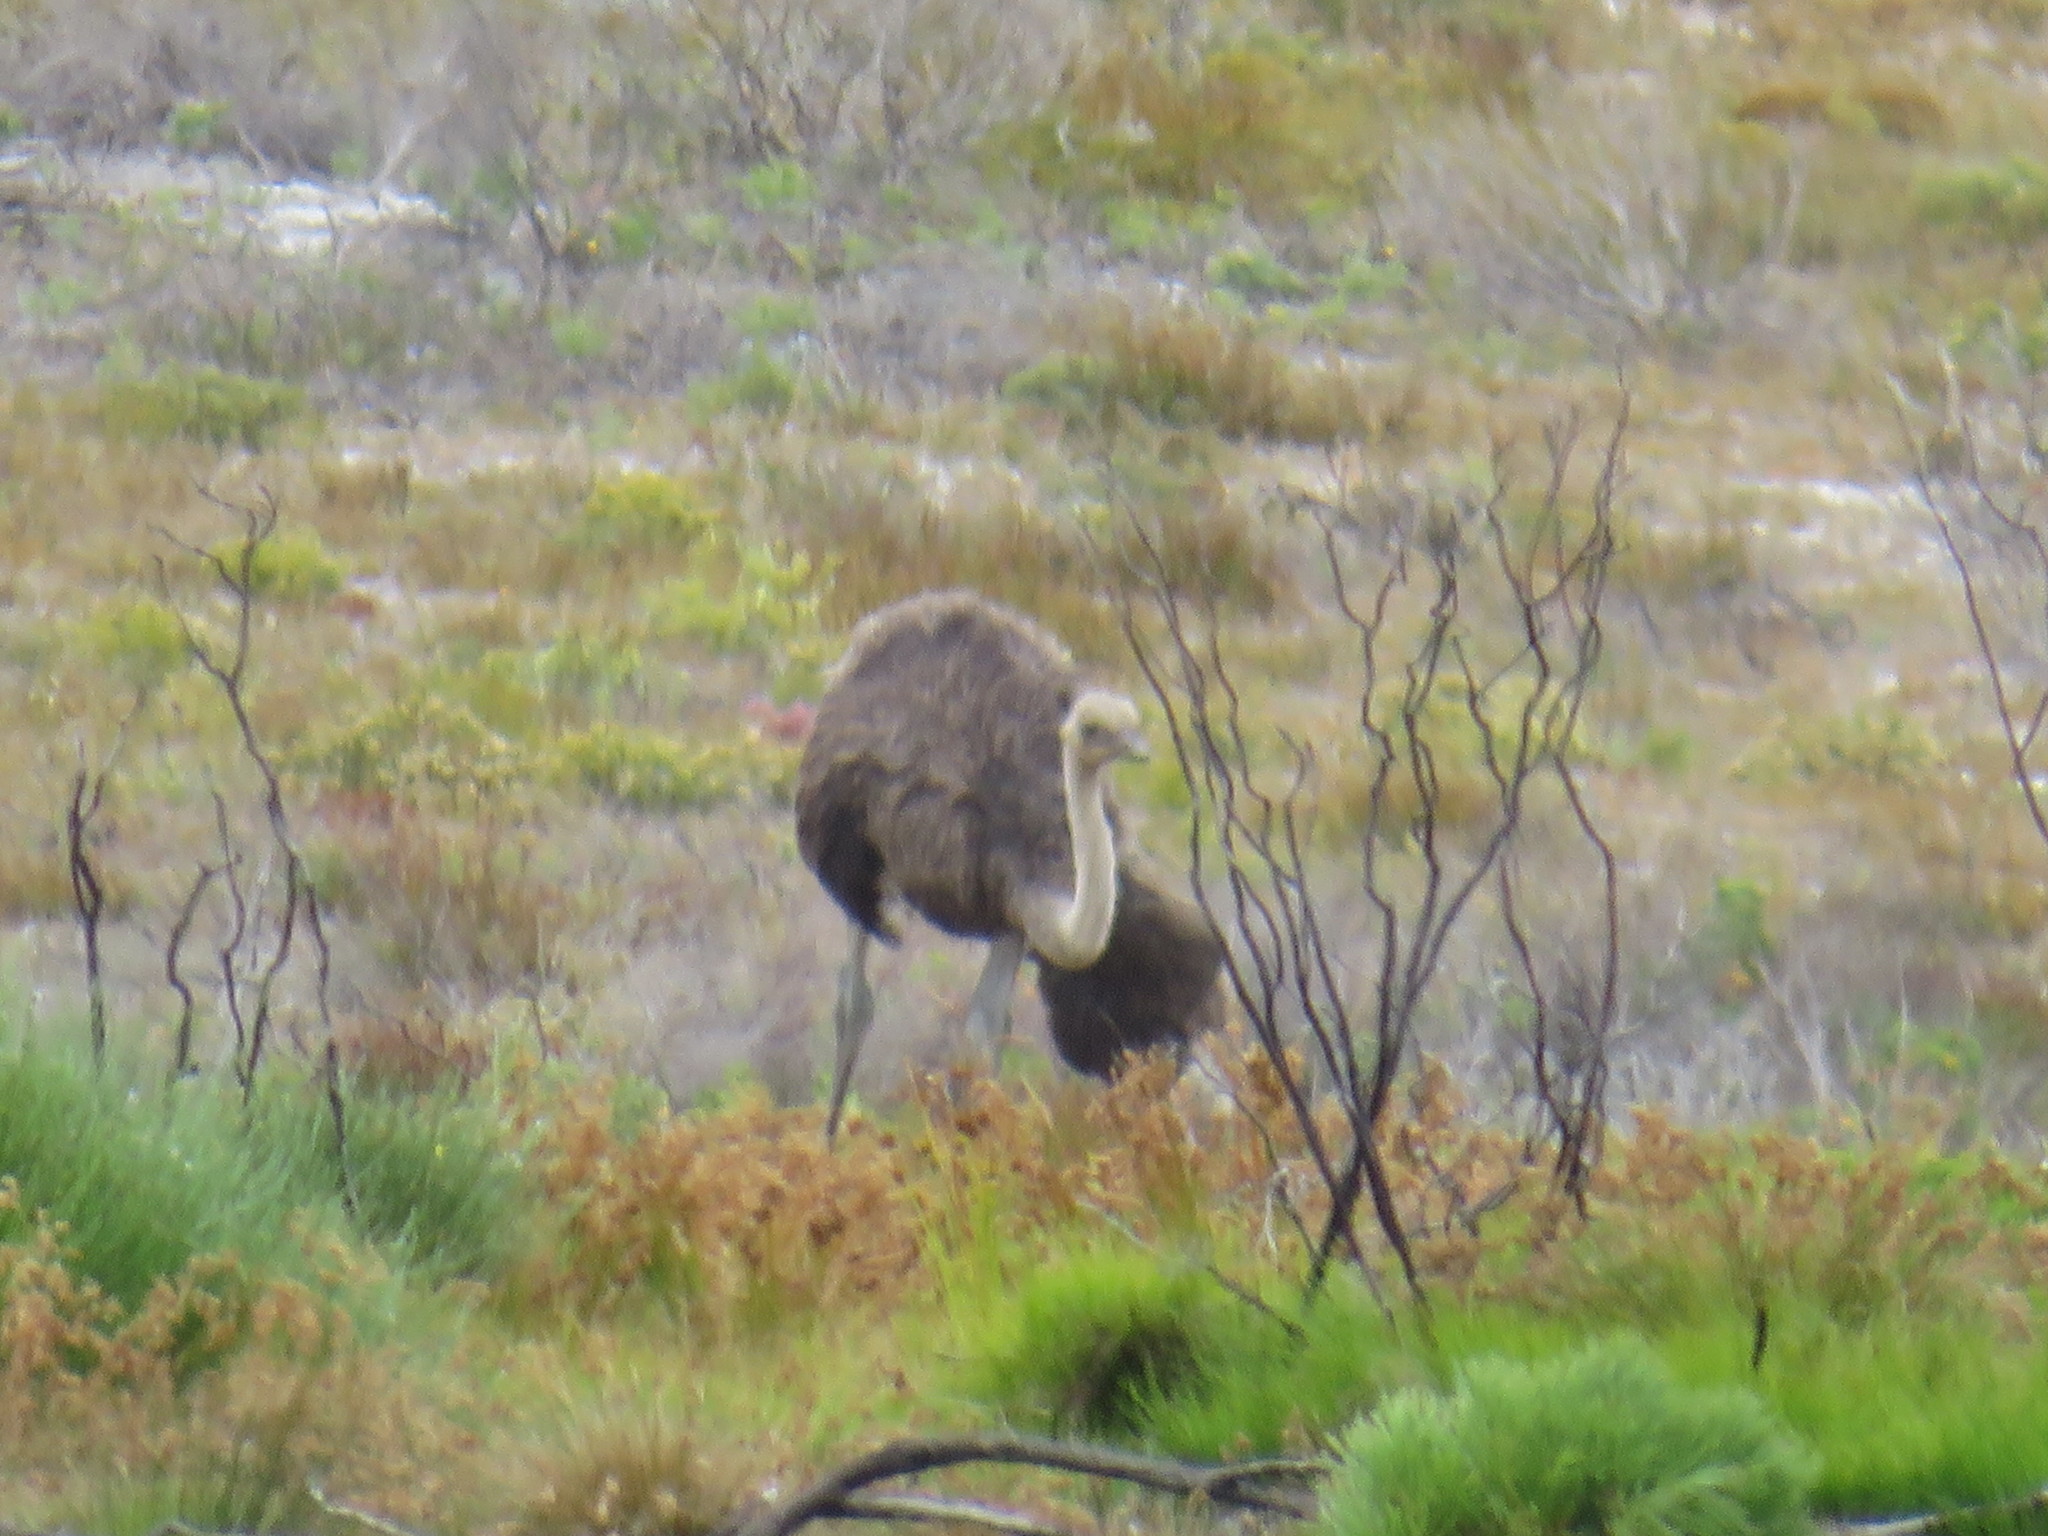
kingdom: Animalia
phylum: Chordata
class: Aves
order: Struthioniformes
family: Struthionidae
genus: Struthio
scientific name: Struthio camelus
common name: Common ostrich
